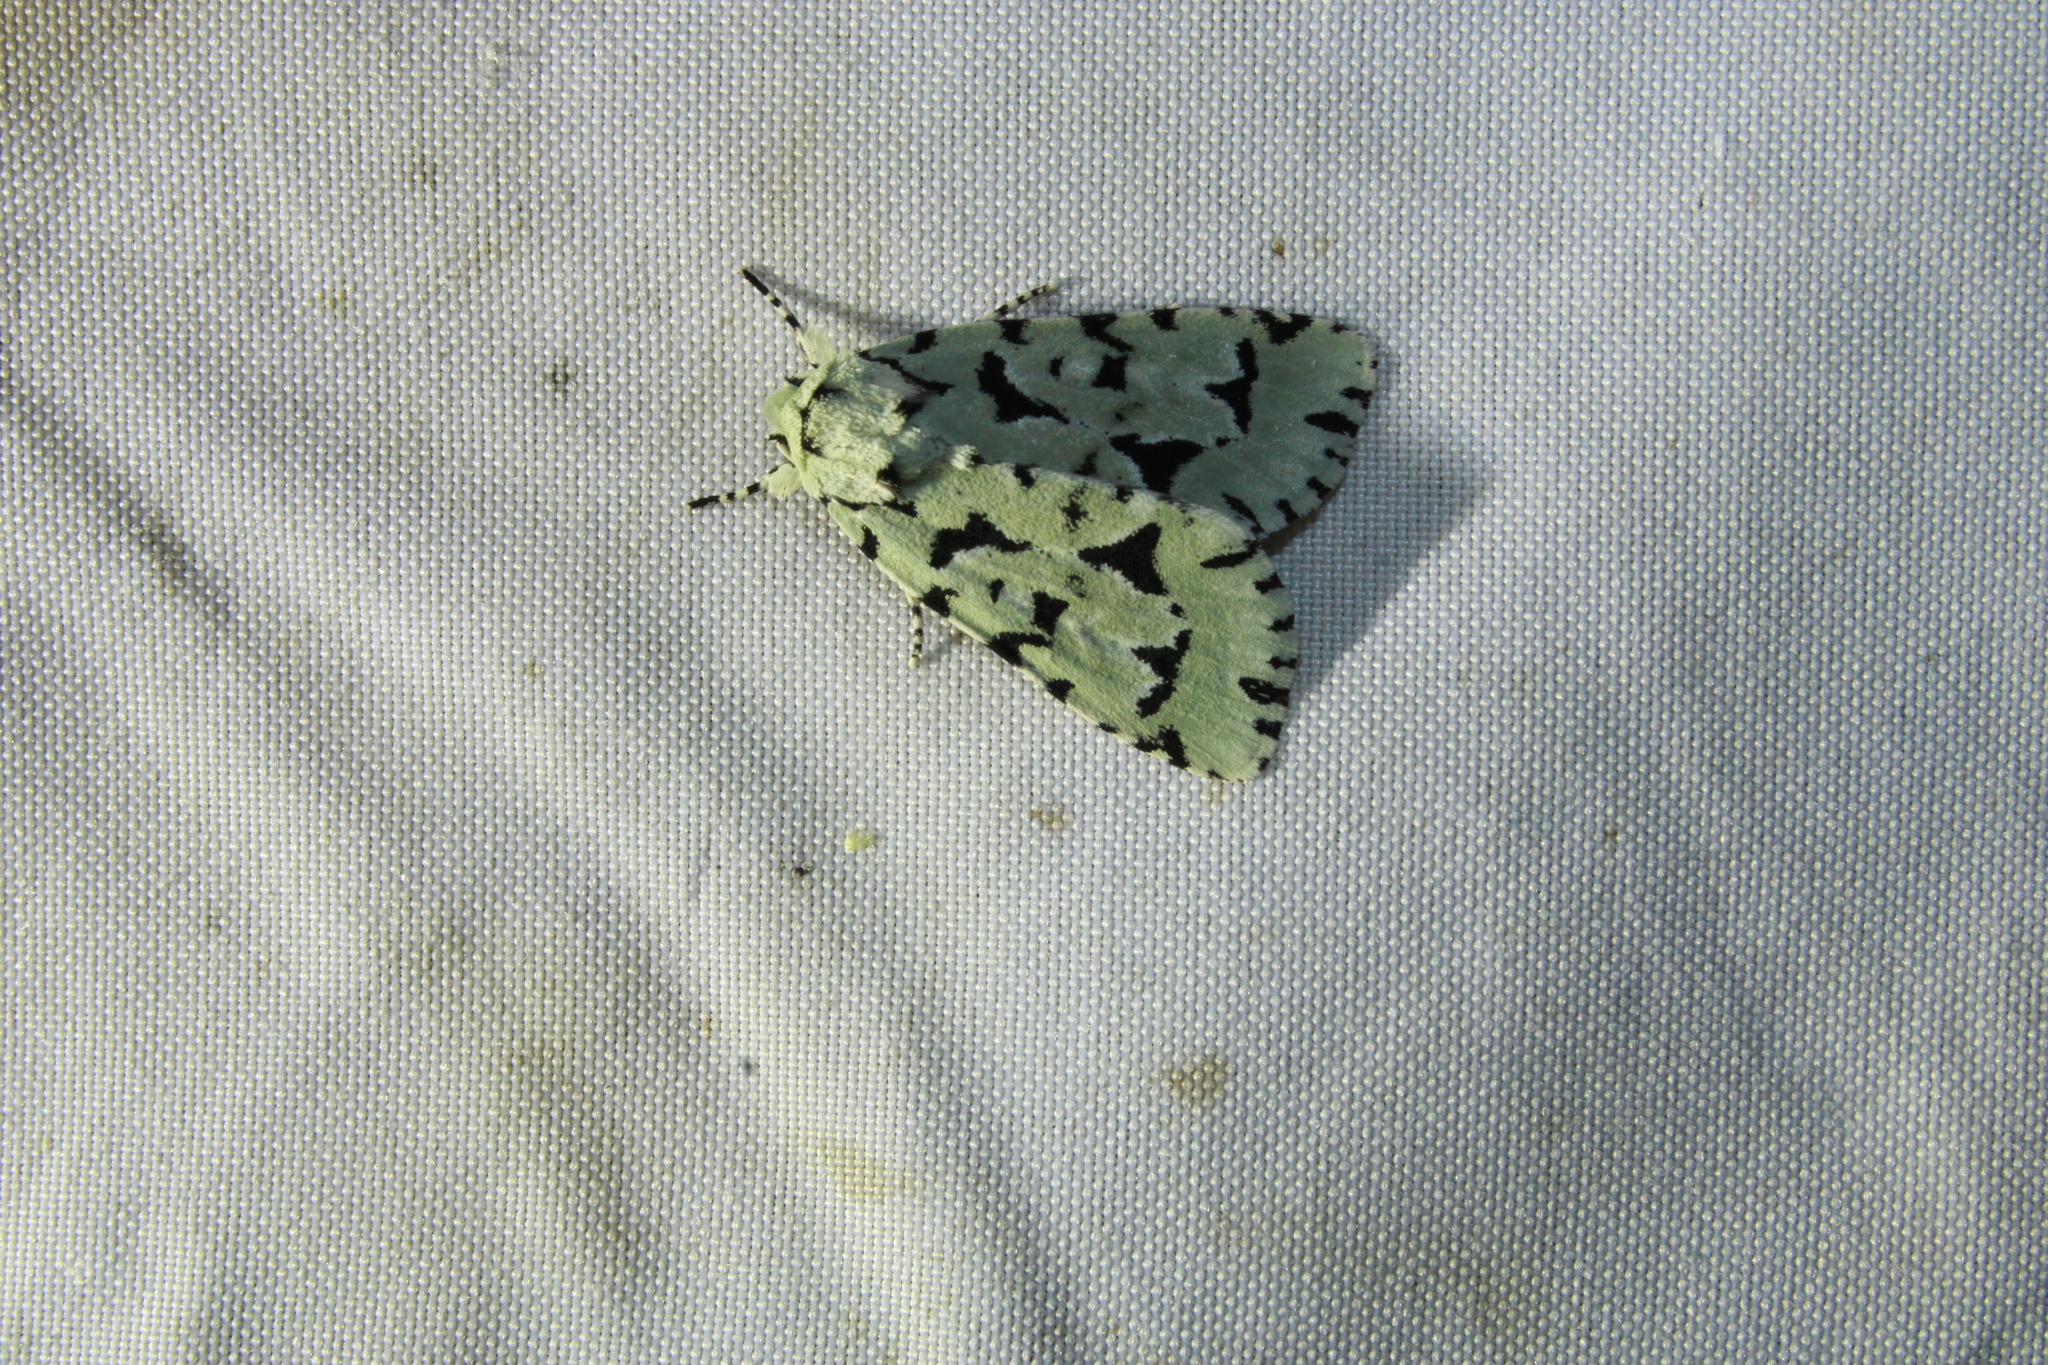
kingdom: Animalia
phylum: Arthropoda
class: Insecta
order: Lepidoptera
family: Noctuidae
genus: Acronicta
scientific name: Acronicta fallax
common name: Green marvel
